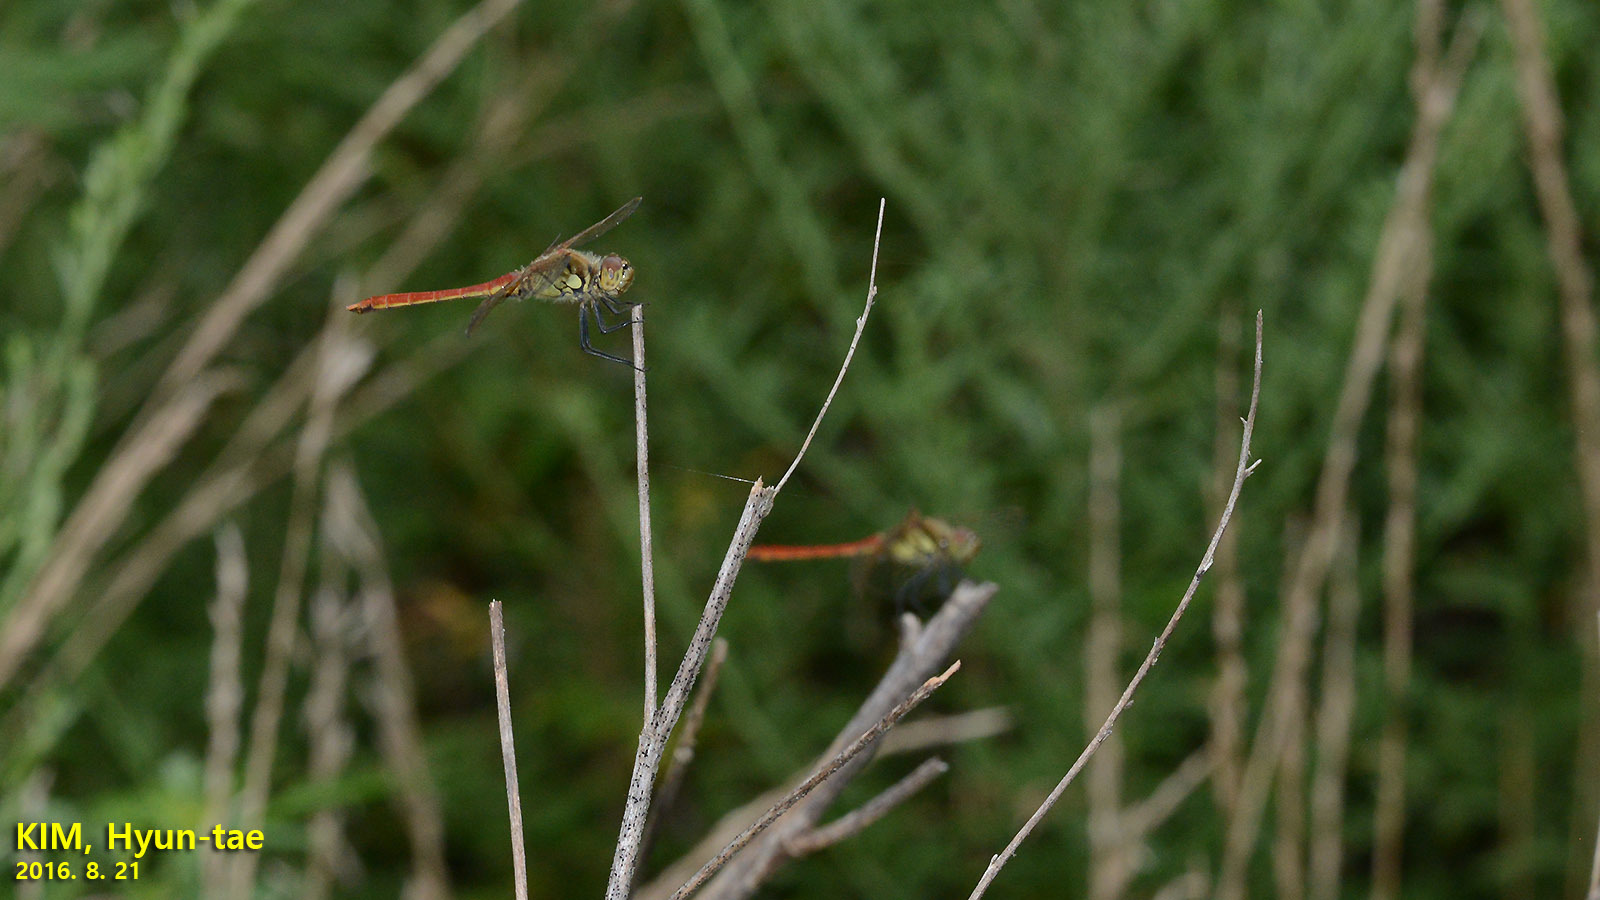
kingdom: Animalia
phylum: Arthropoda
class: Insecta
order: Odonata
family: Libellulidae
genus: Sympetrum
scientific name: Sympetrum depressiusculum
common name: Spotted darter
